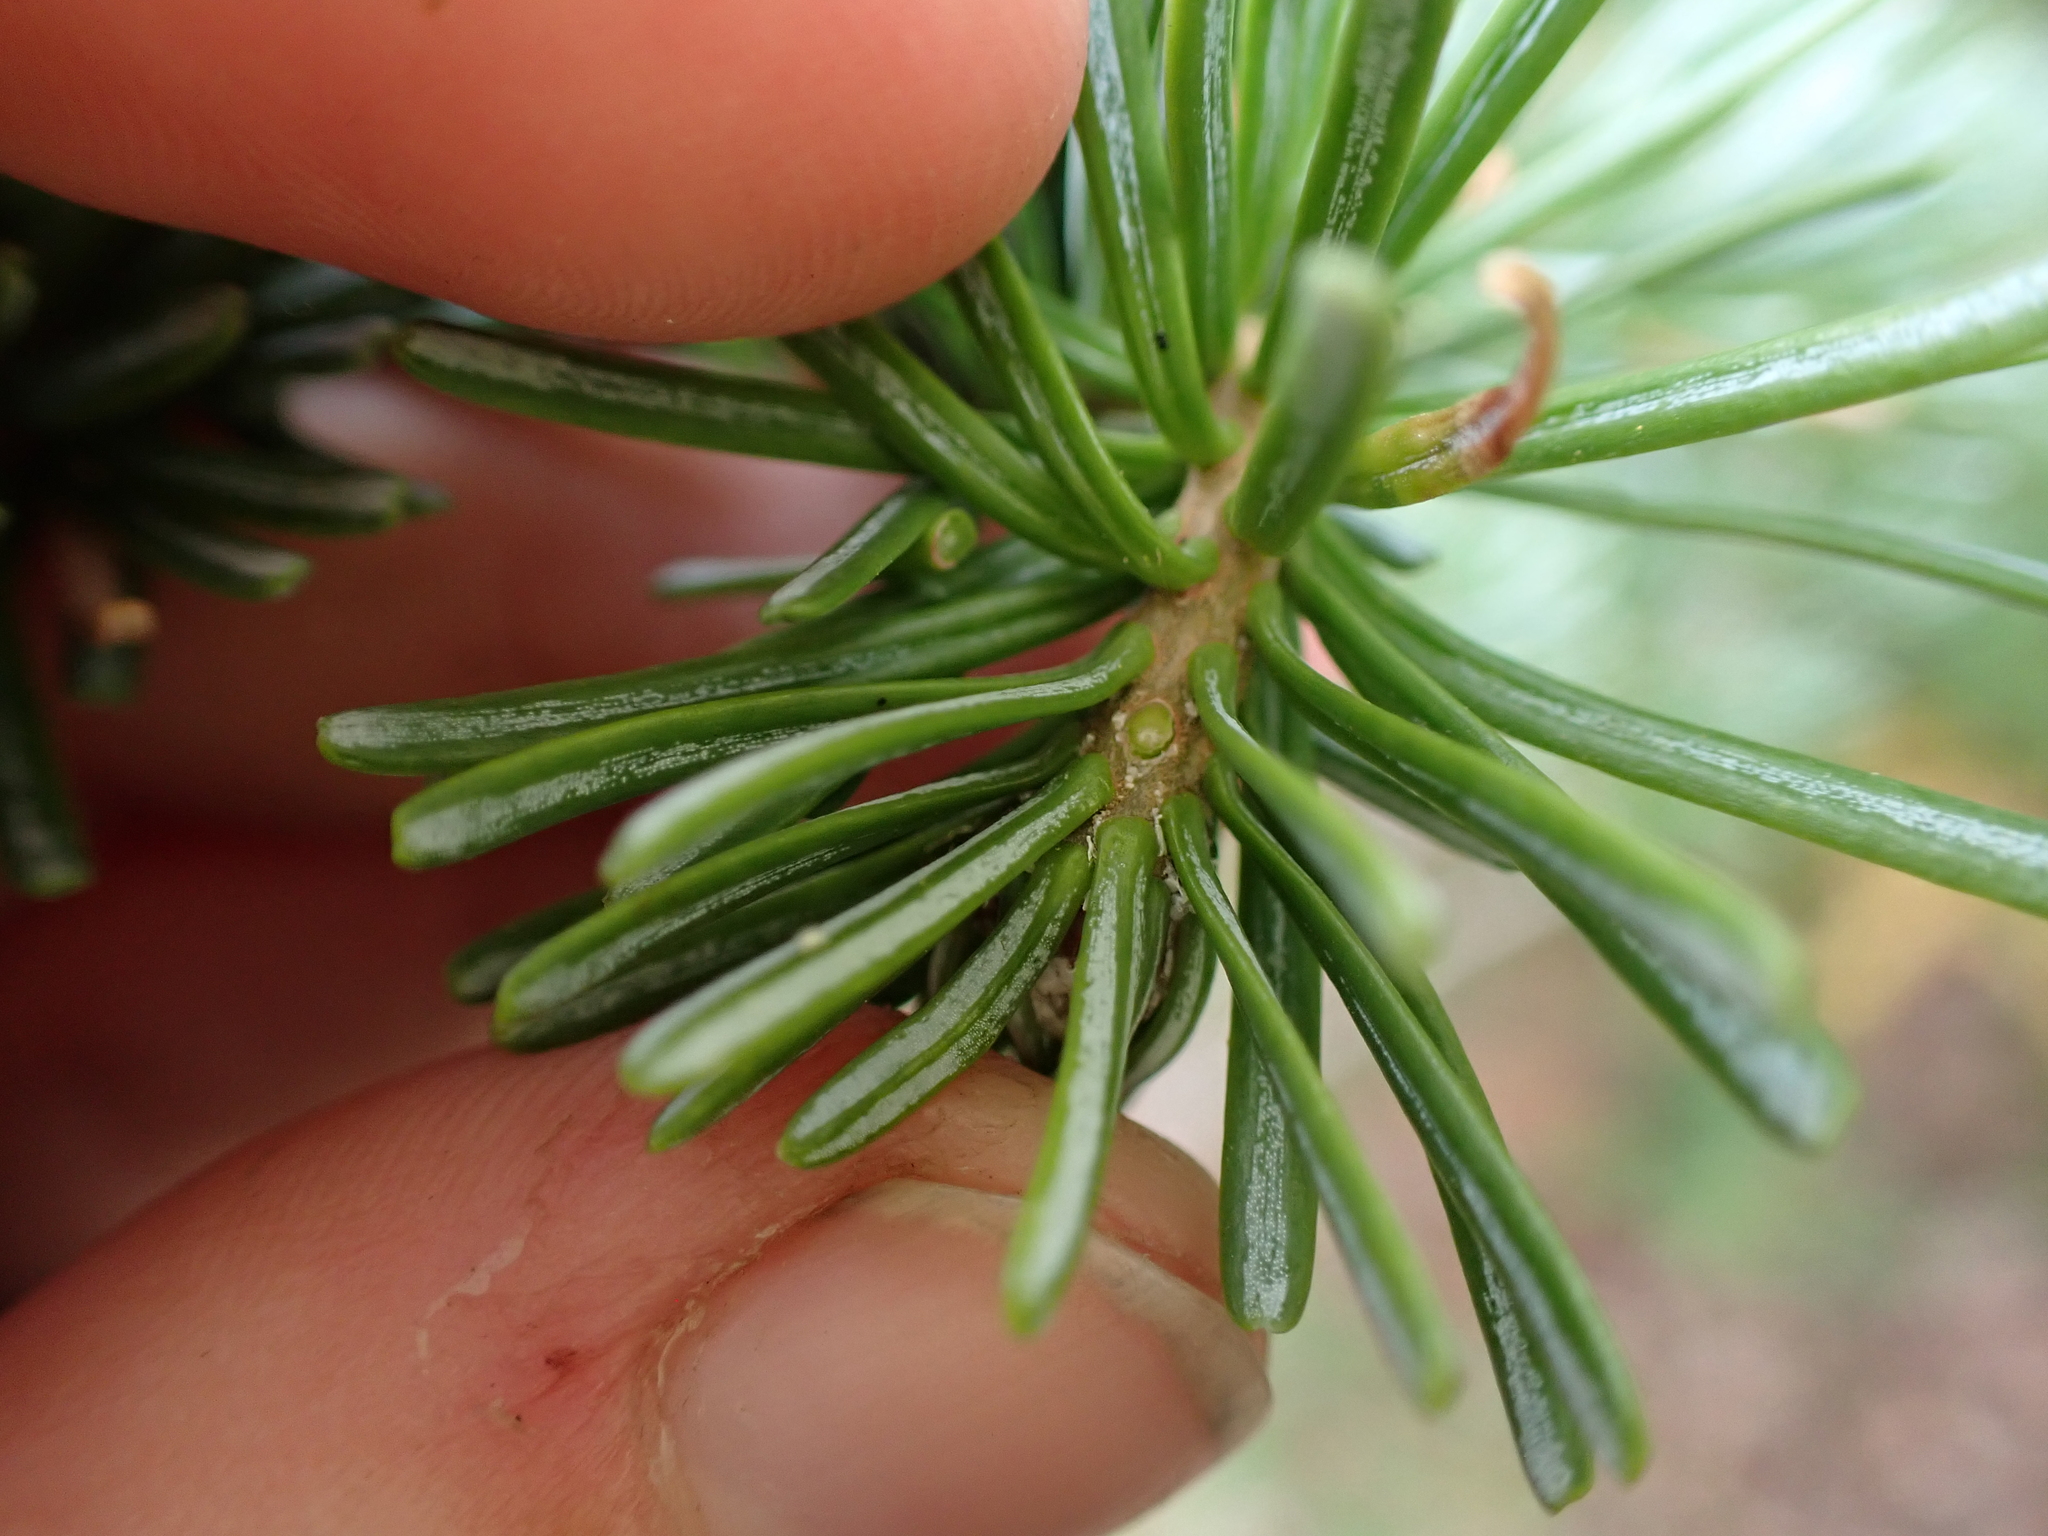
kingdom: Plantae
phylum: Tracheophyta
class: Pinopsida
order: Pinales
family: Pinaceae
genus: Abies
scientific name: Abies lasiocarpa
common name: Subalpine fir
